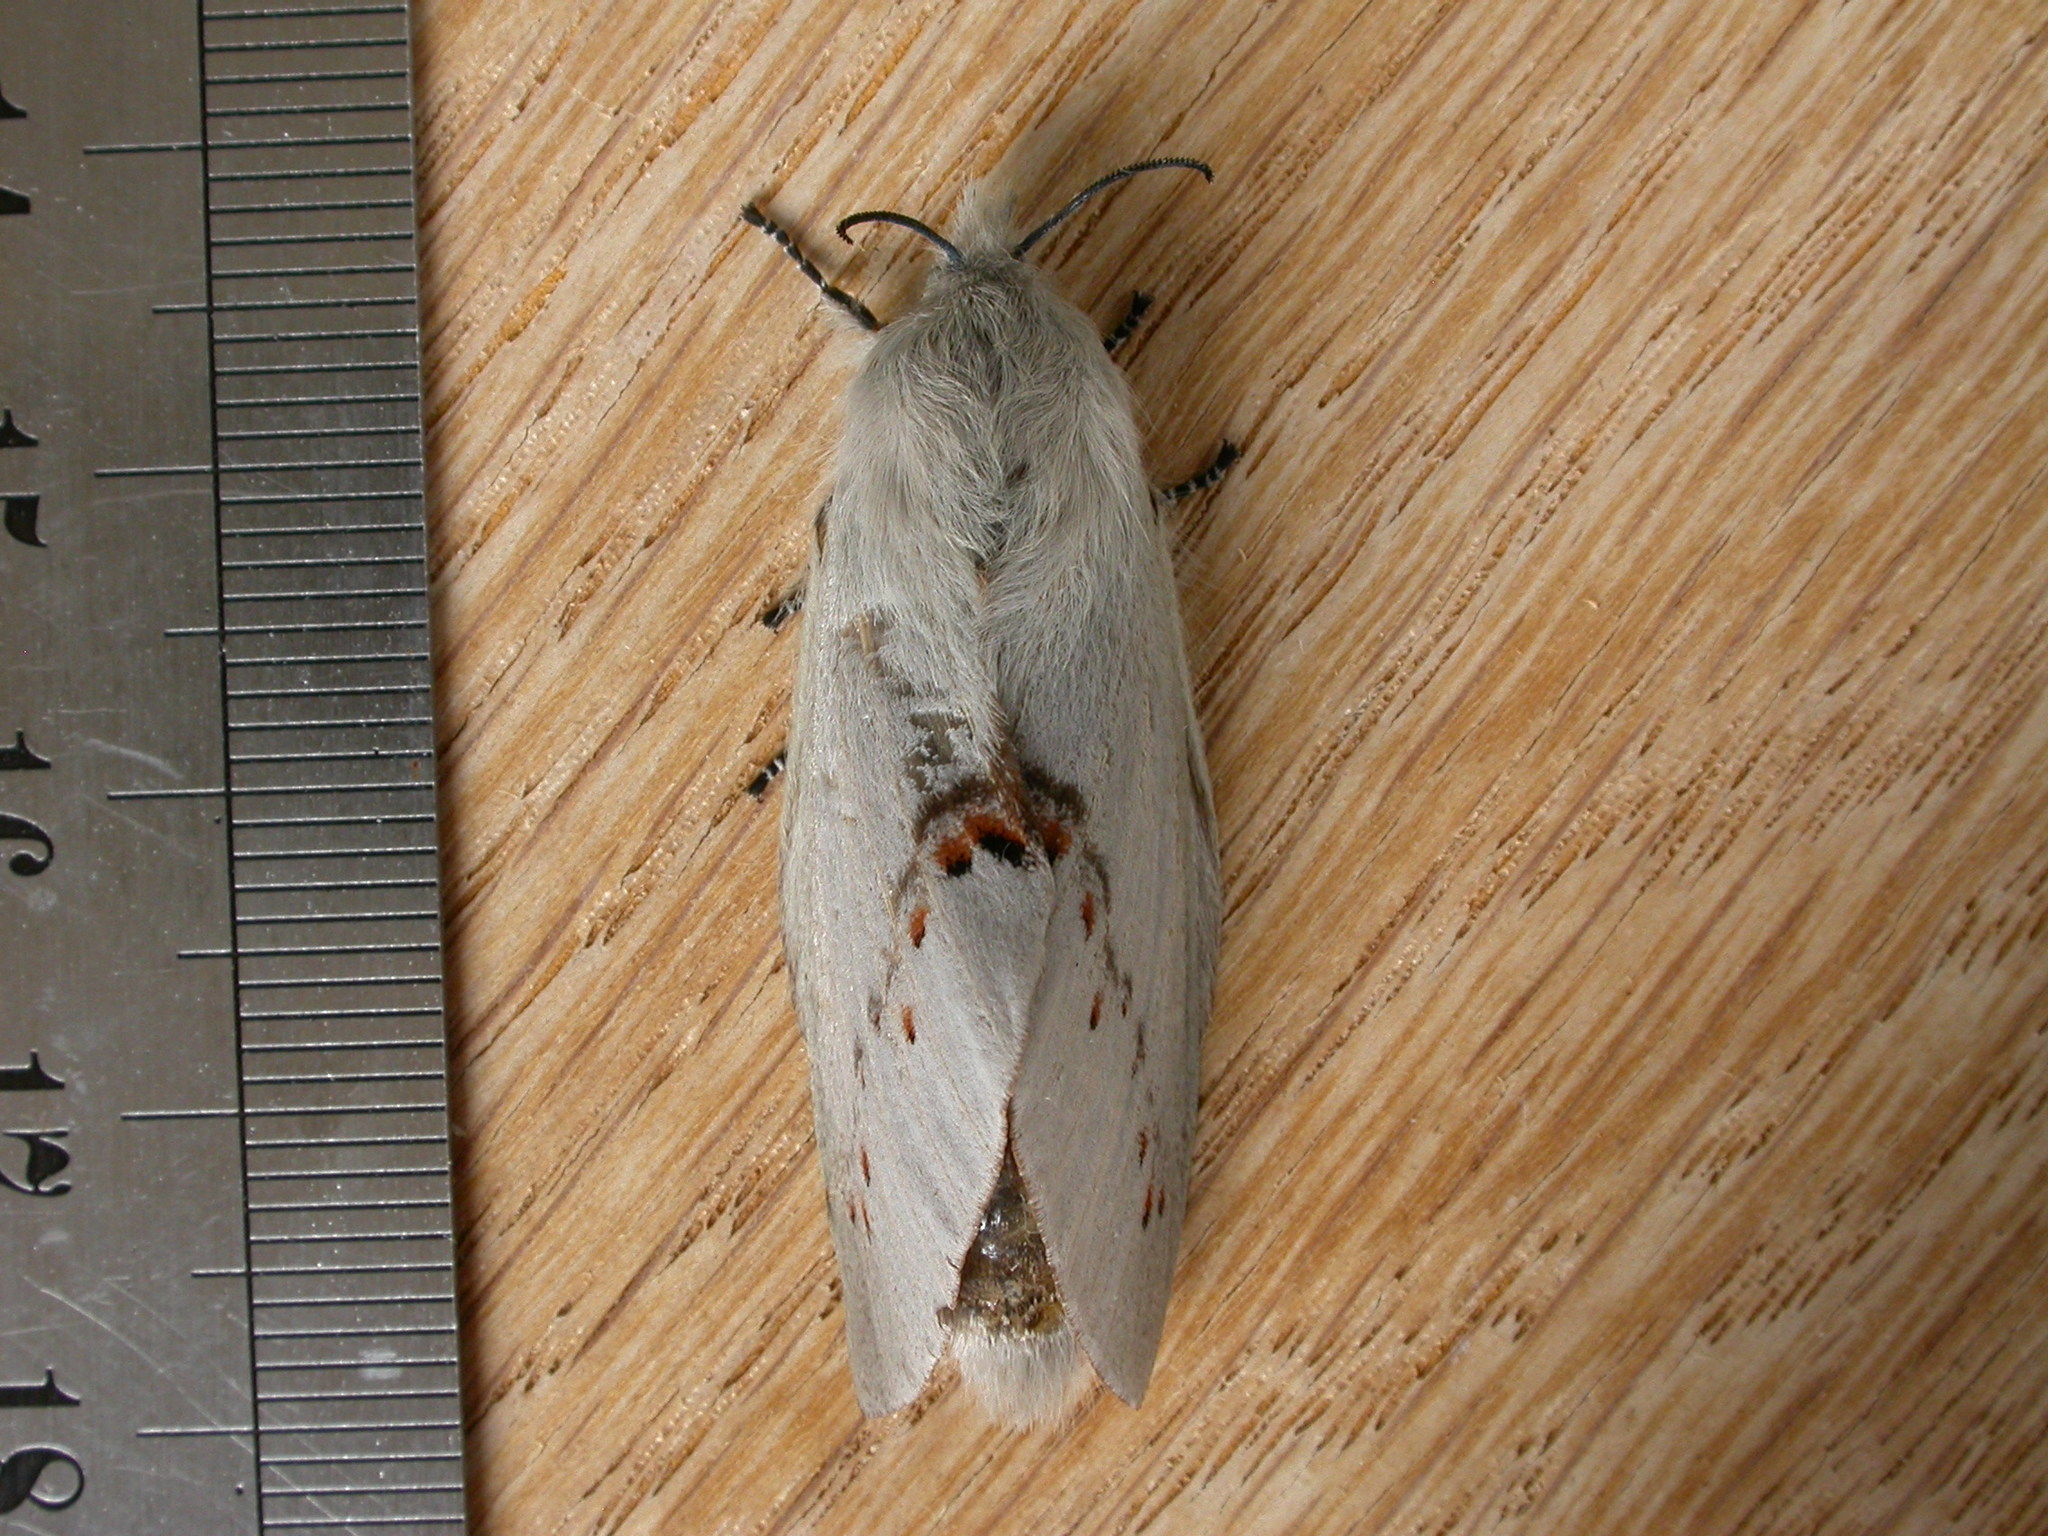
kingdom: Animalia
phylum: Arthropoda
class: Insecta
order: Lepidoptera
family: Lasiocampidae
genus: Pinara
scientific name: Pinara metaphaea
